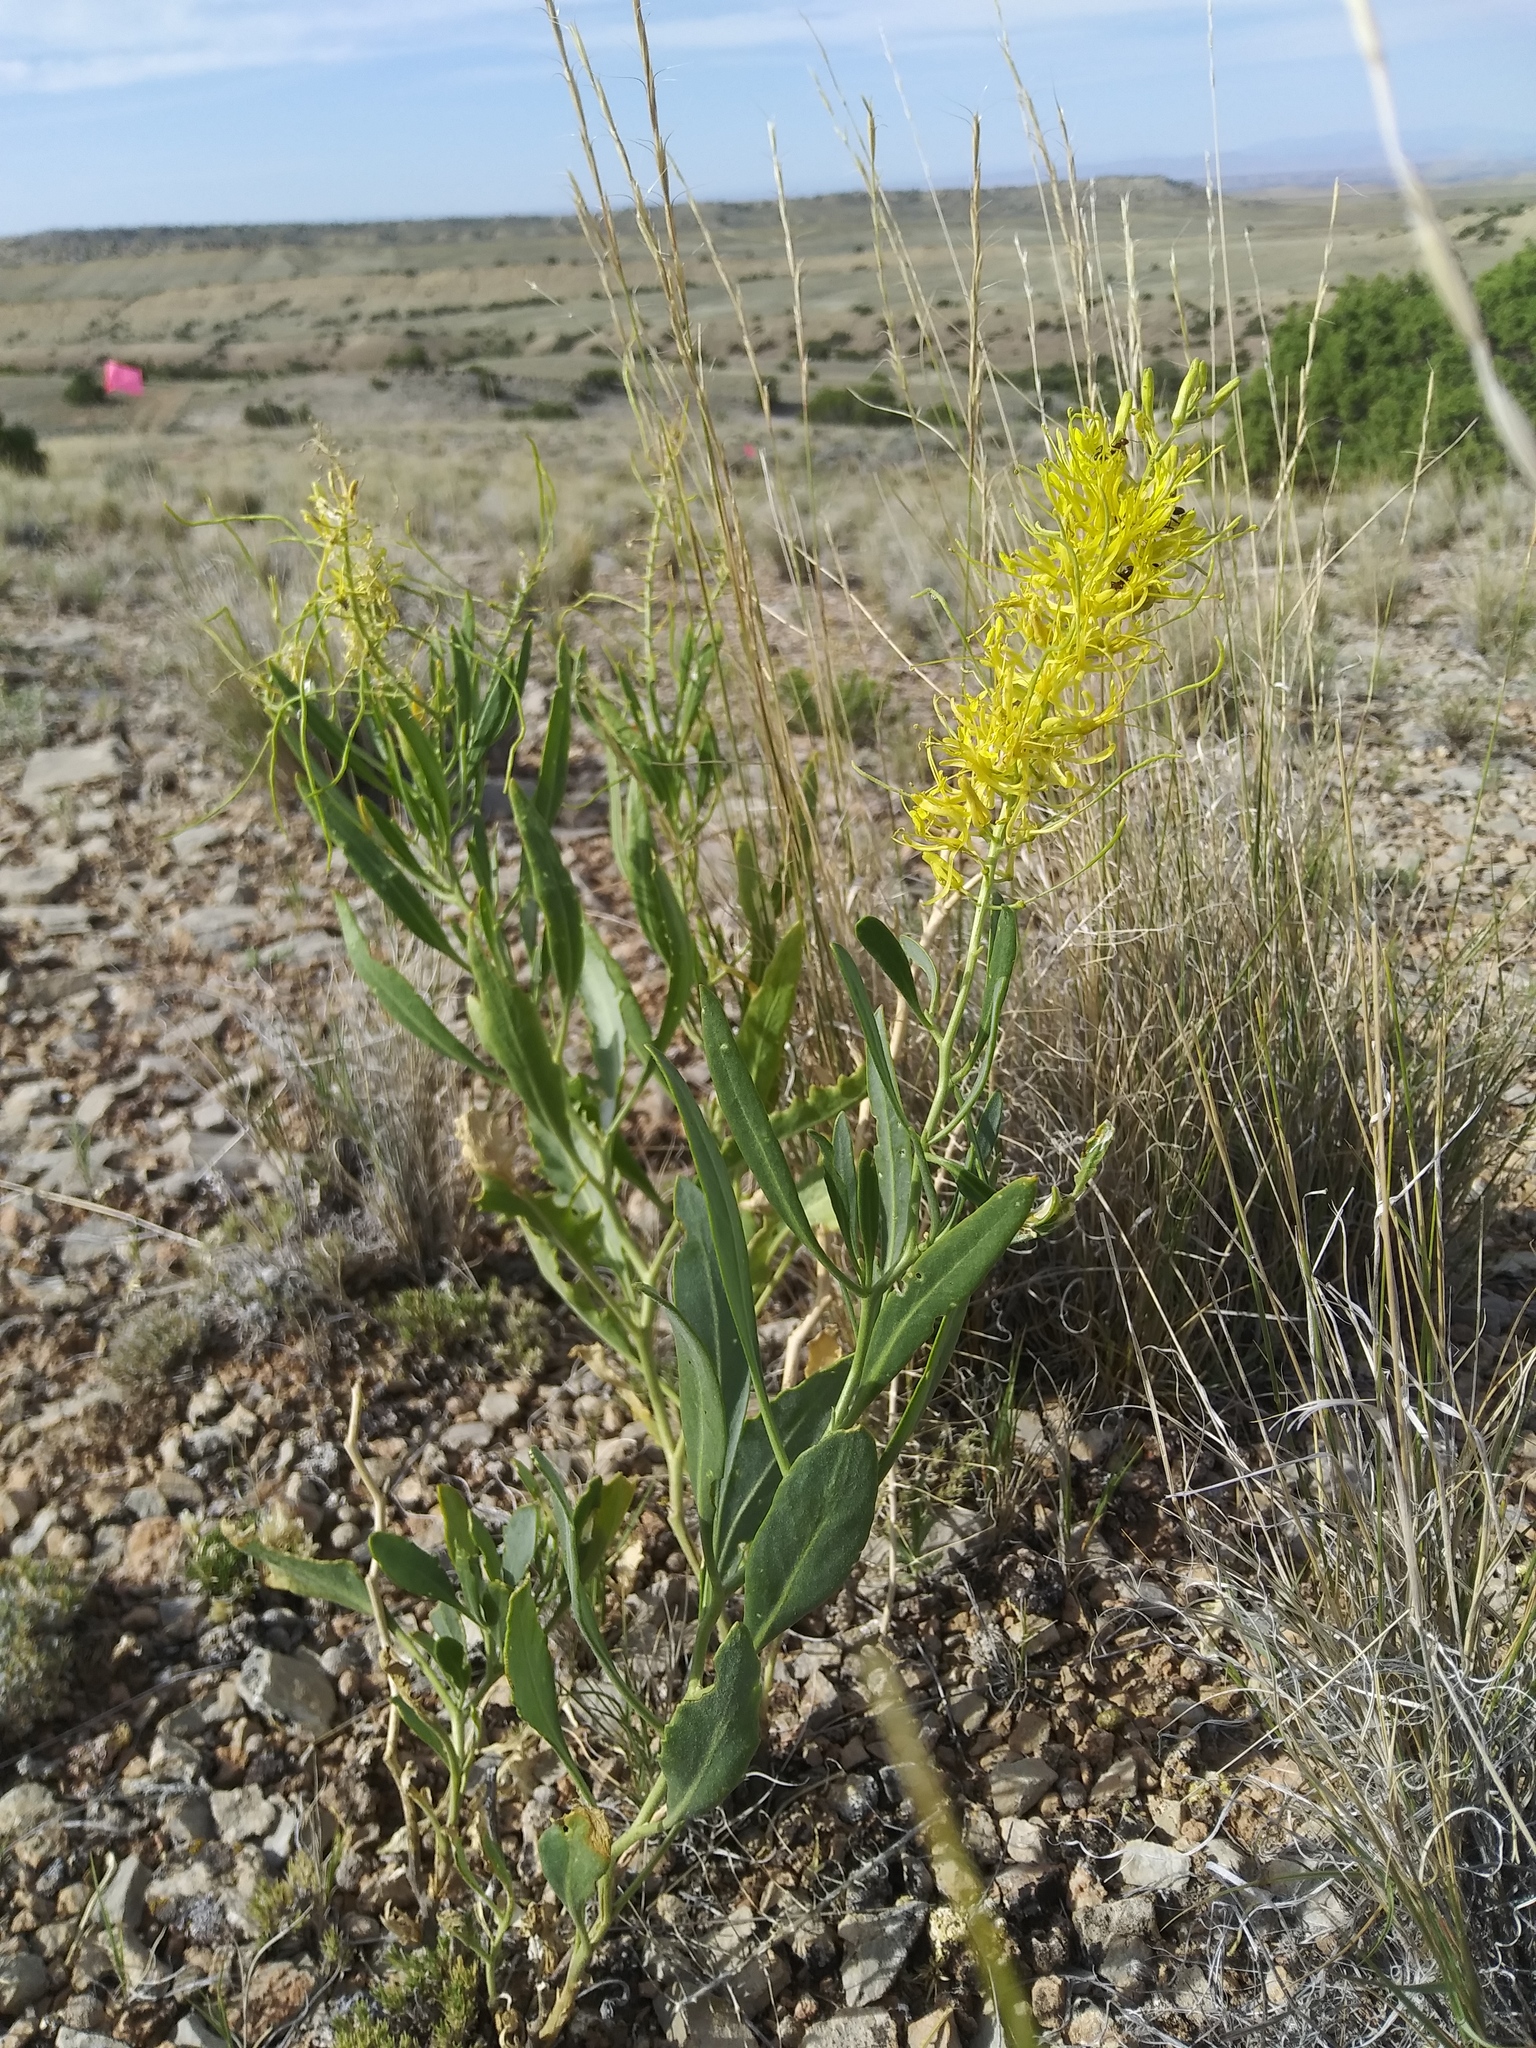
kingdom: Plantae
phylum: Tracheophyta
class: Magnoliopsida
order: Brassicales
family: Brassicaceae
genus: Stanleya
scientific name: Stanleya pinnata
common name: Prince's-plume
